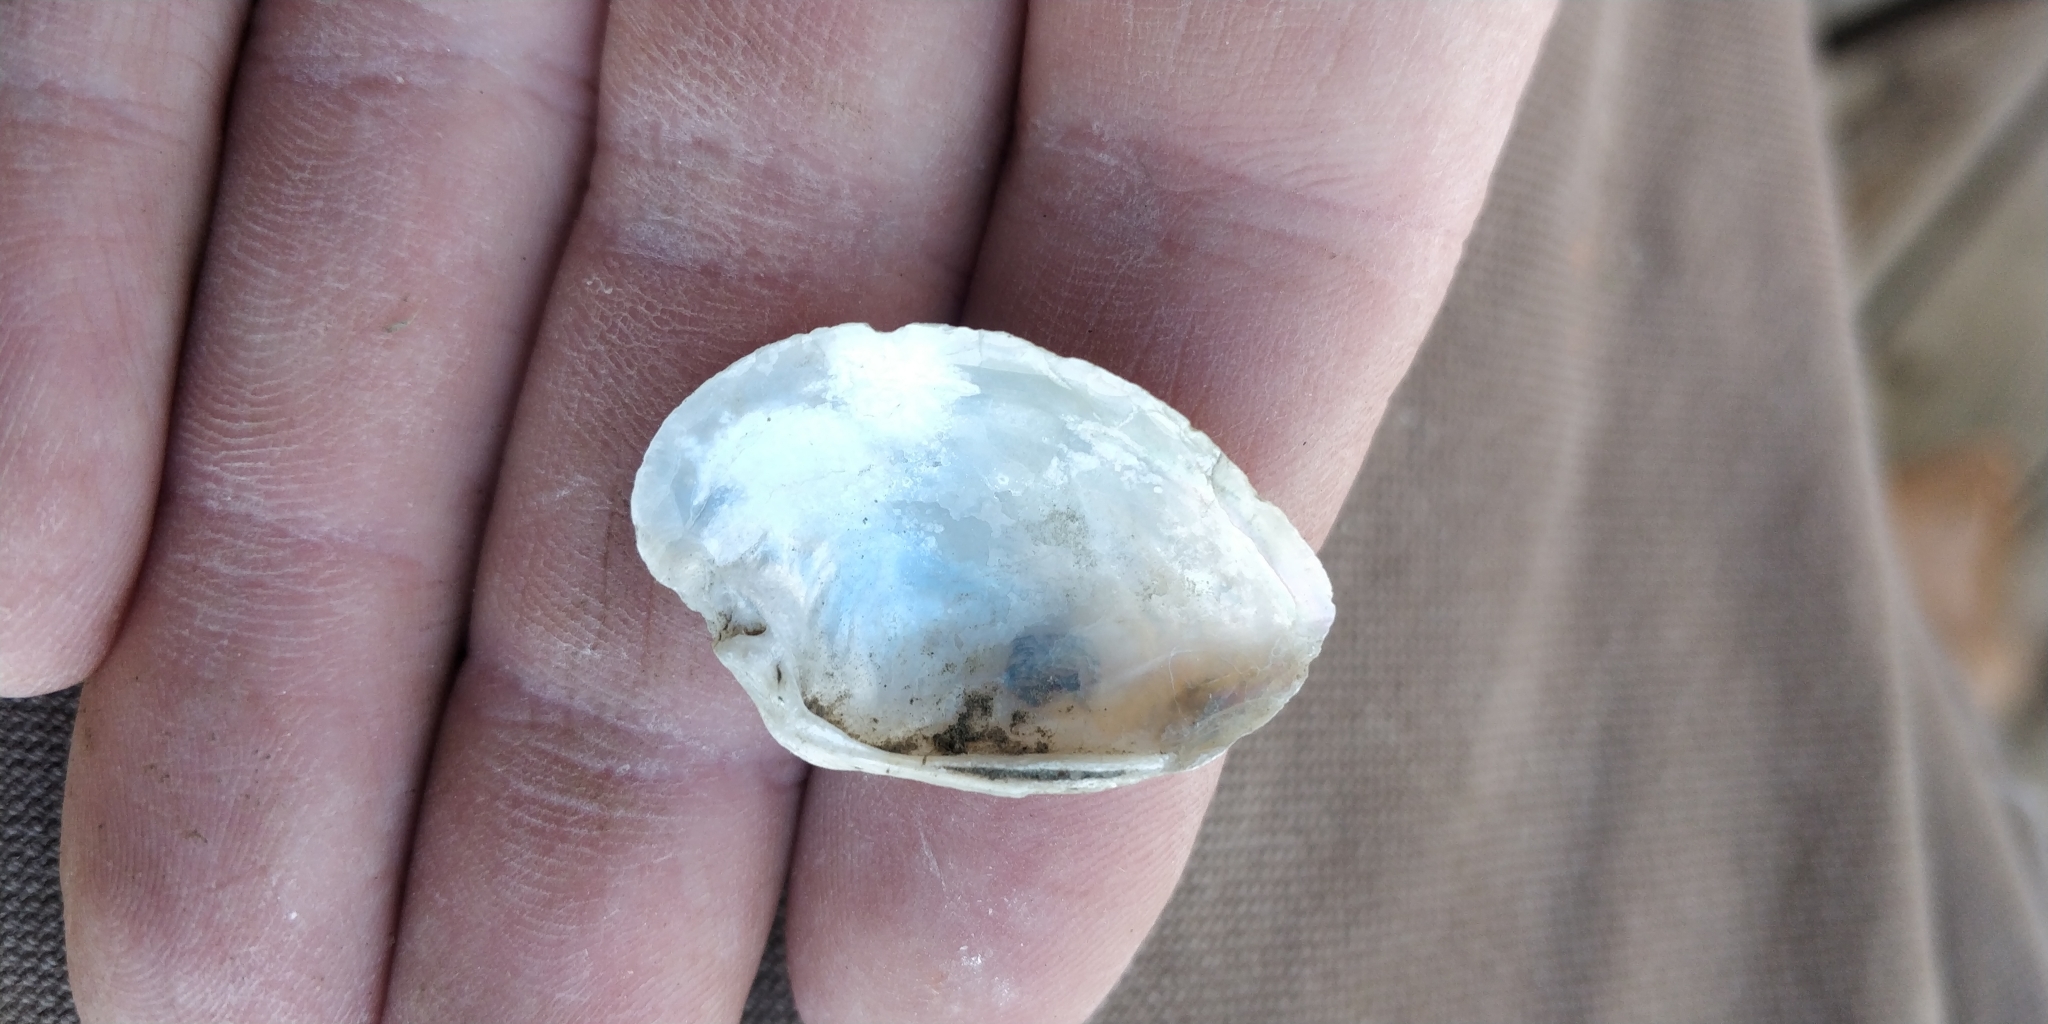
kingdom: Animalia
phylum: Mollusca
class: Bivalvia
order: Unionida
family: Unionidae
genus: Truncilla
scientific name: Truncilla donaciformis
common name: Fawnsfoot
